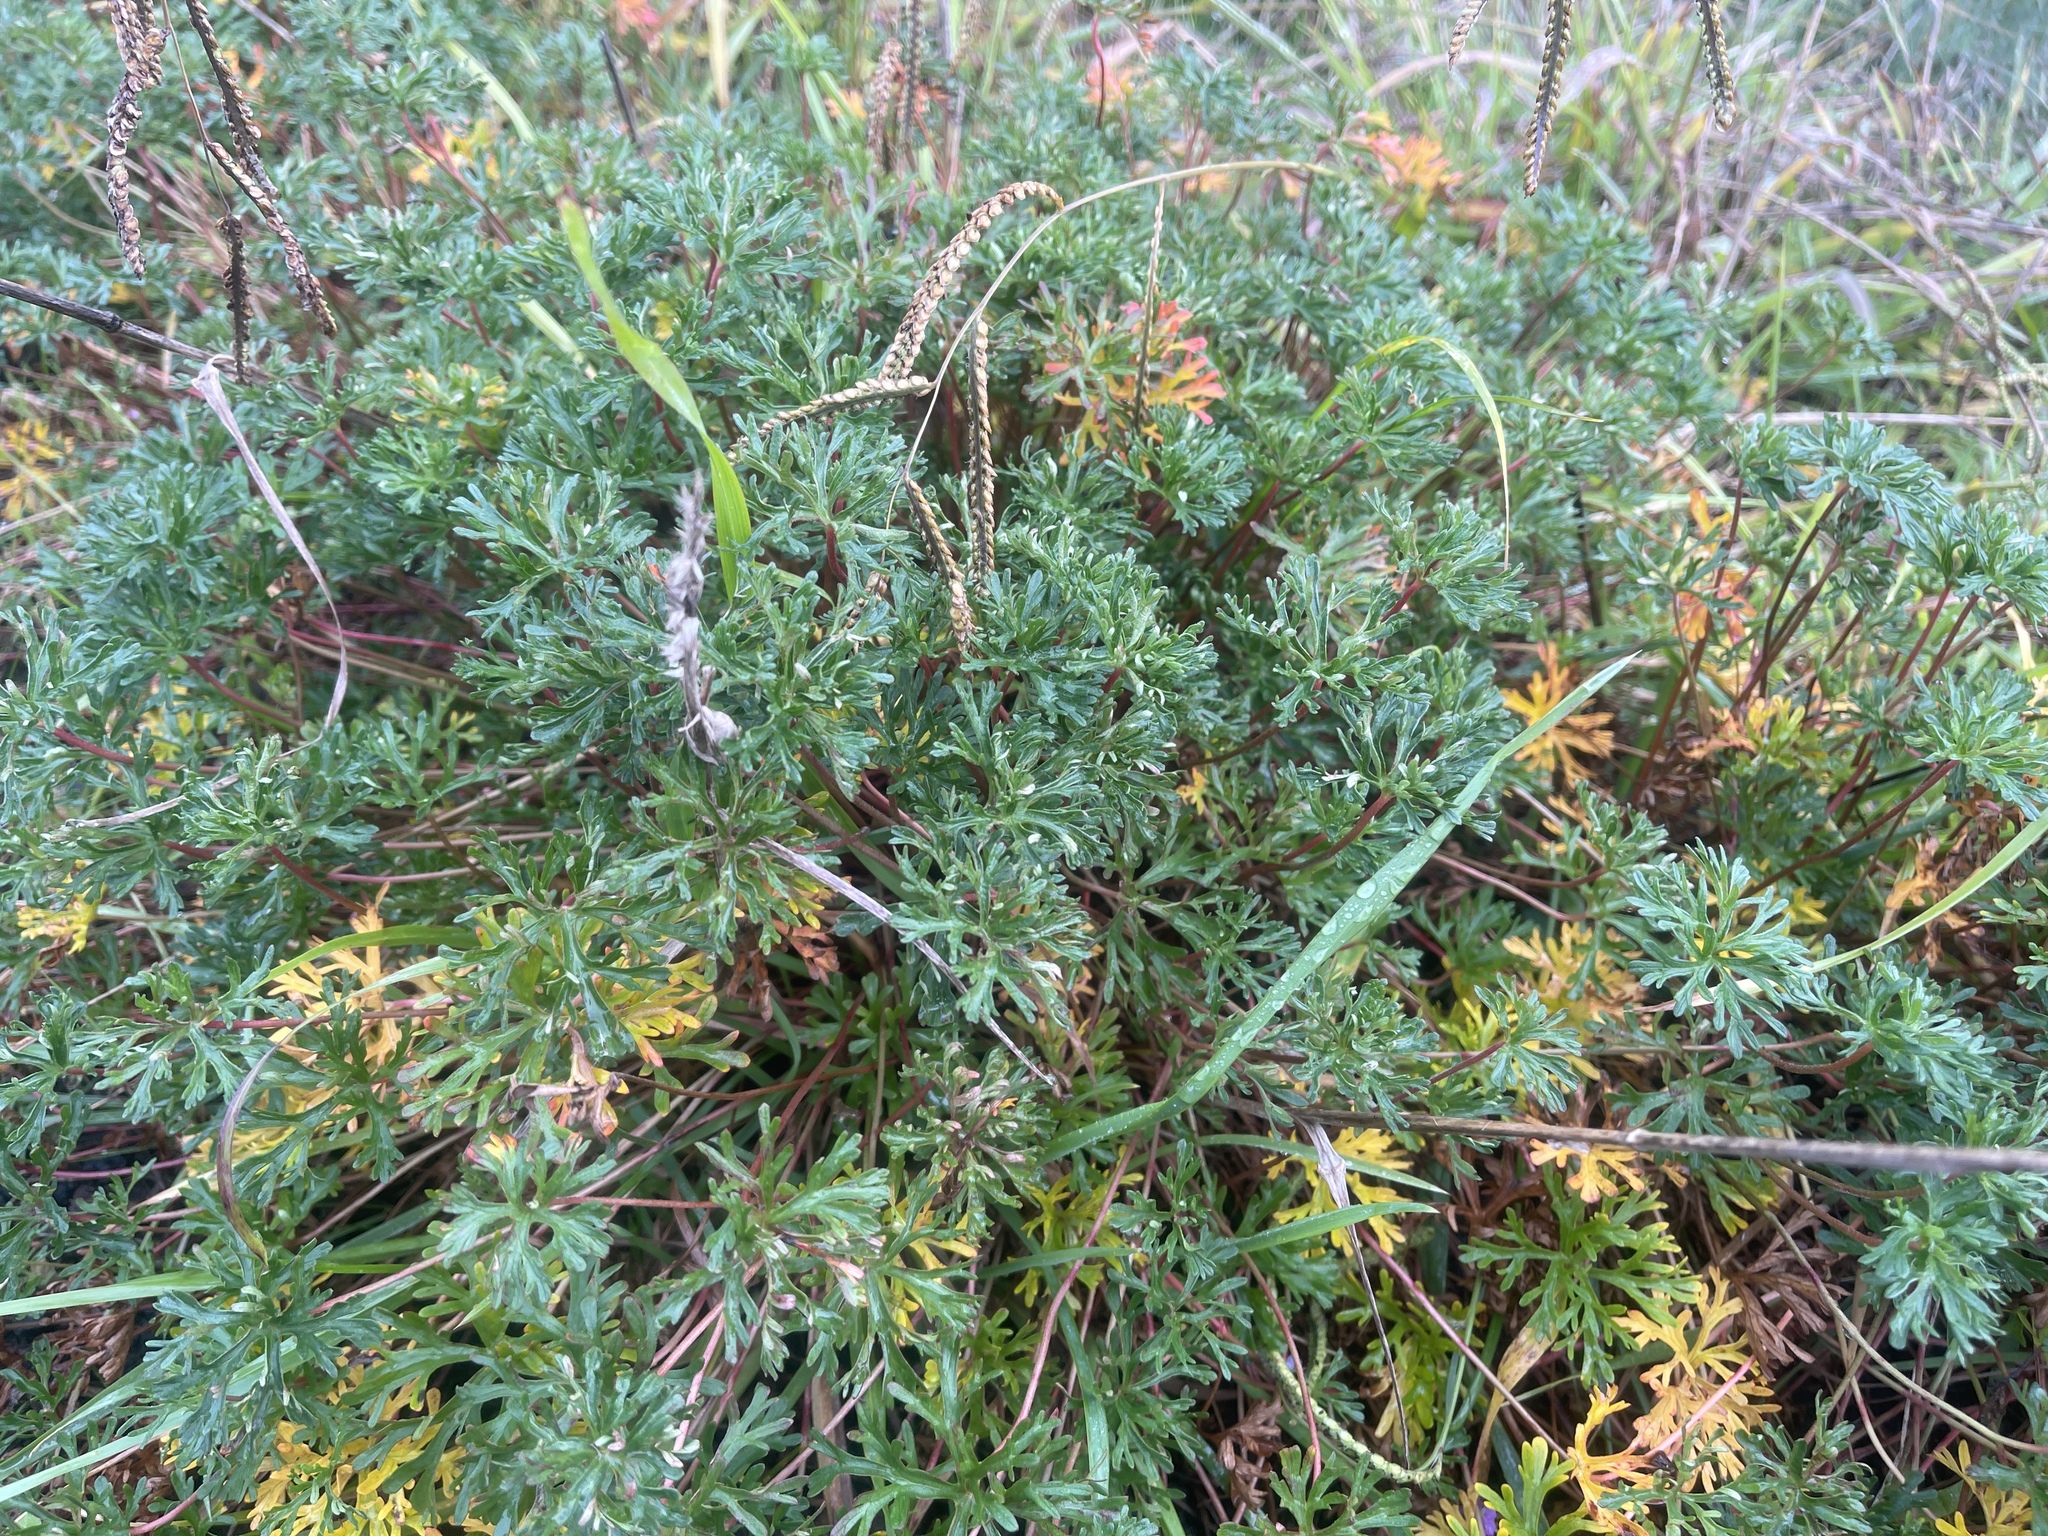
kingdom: Plantae
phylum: Tracheophyta
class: Magnoliopsida
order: Geraniales
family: Geraniaceae
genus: Geranium
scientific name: Geranium retrorsum
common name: New zealand geranium
